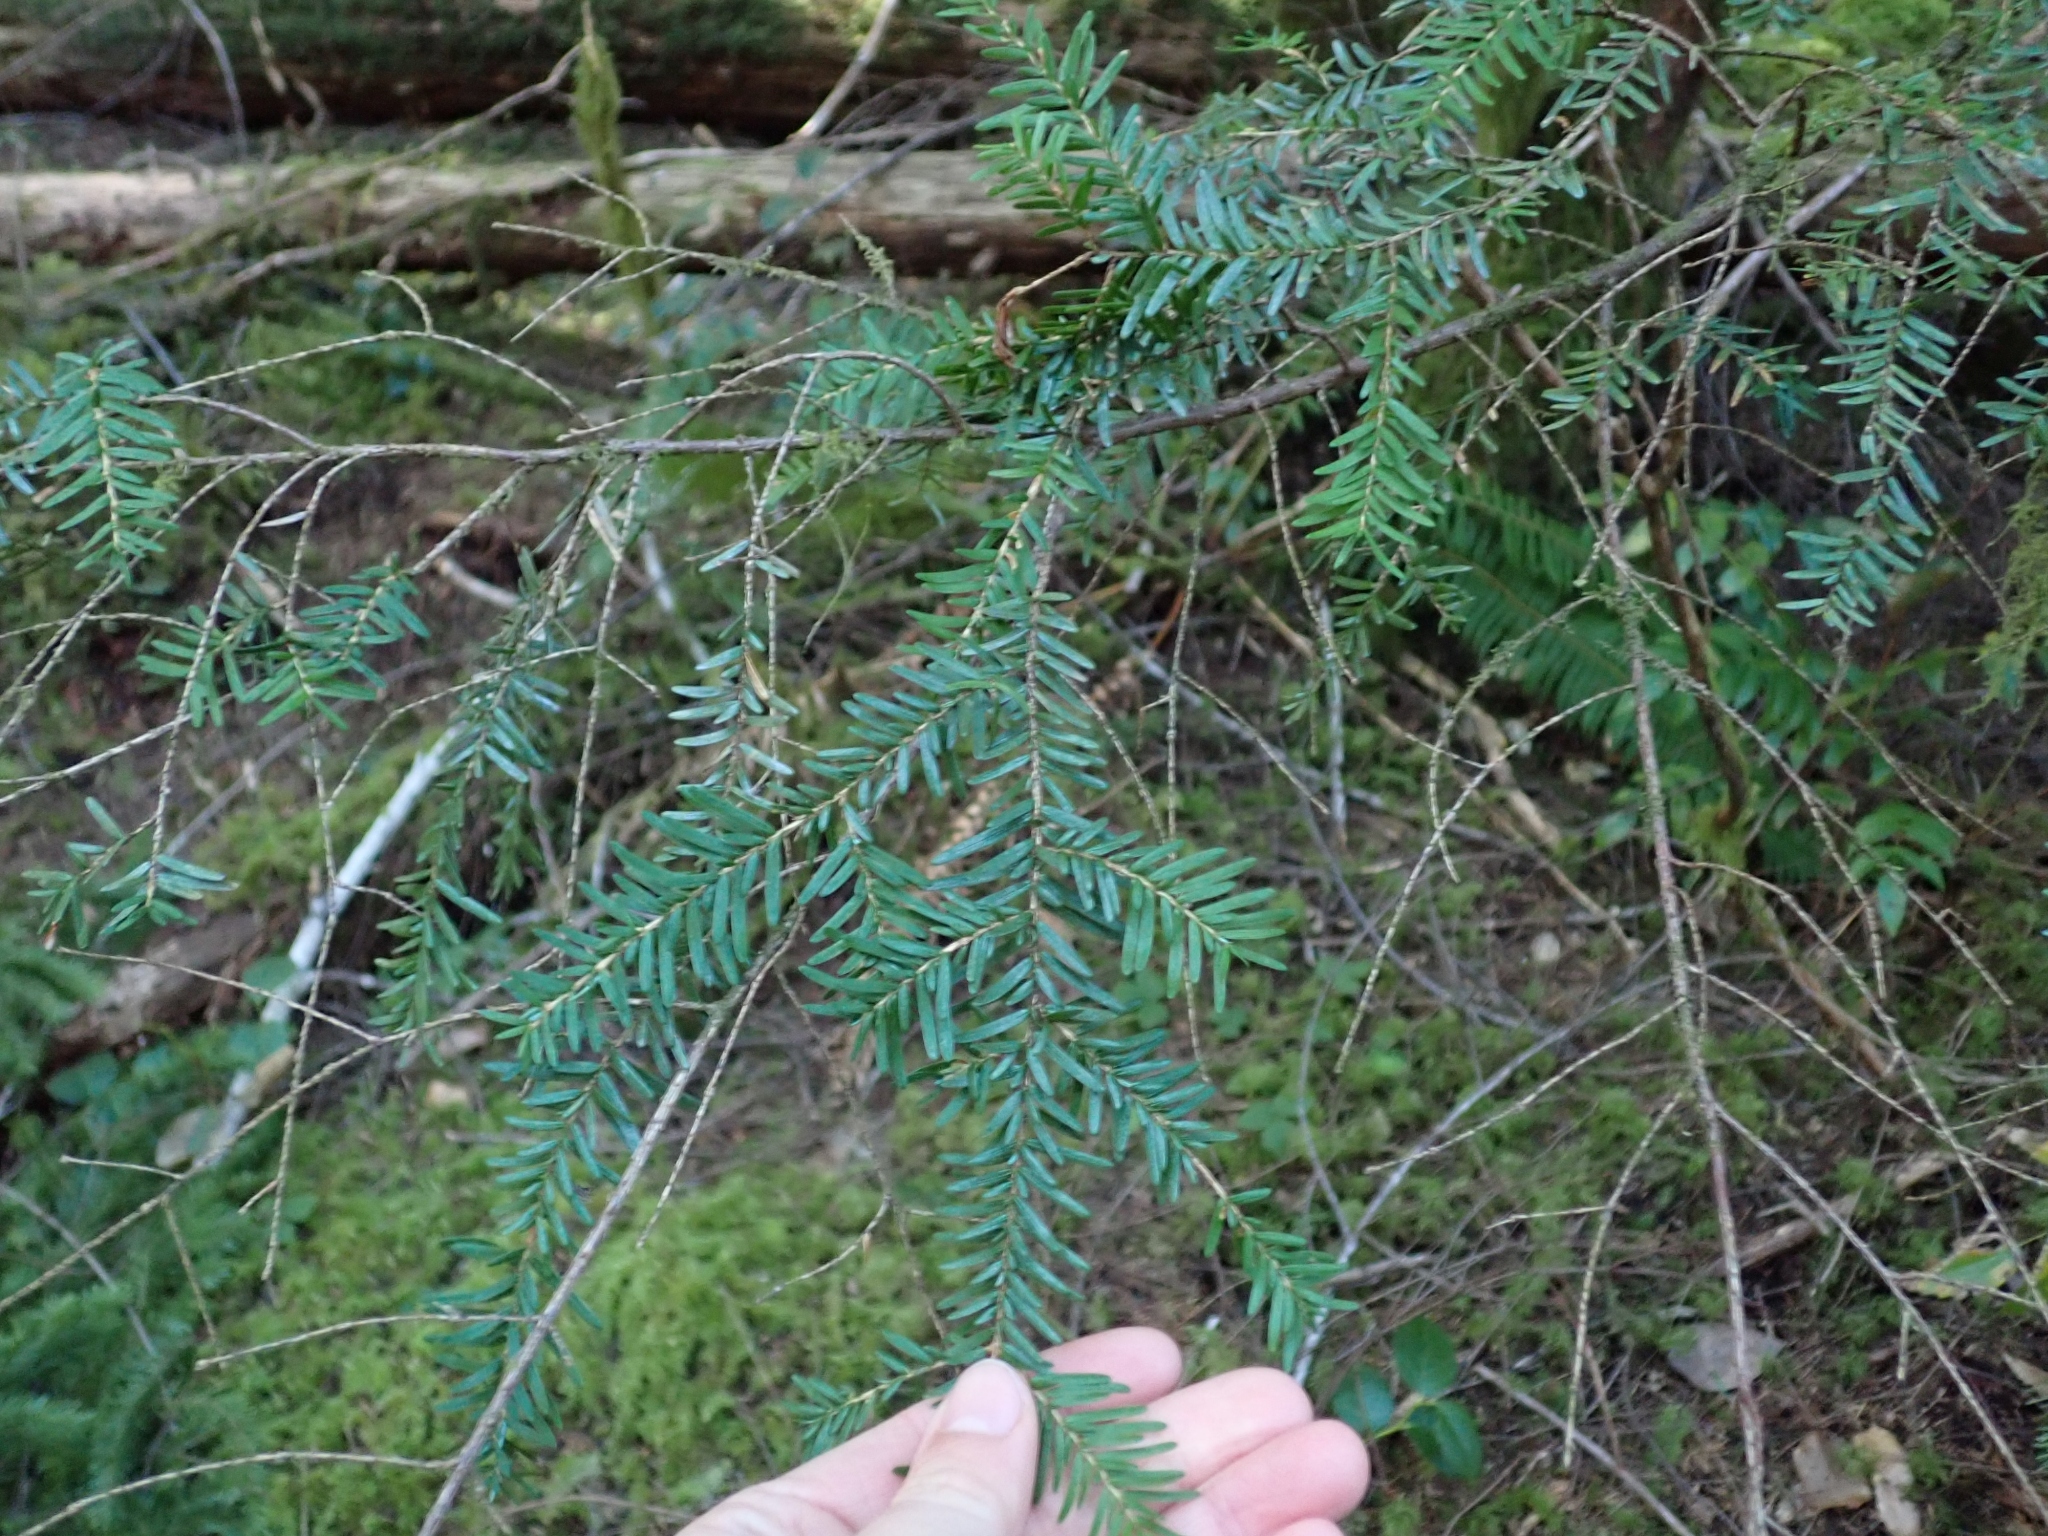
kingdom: Plantae
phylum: Tracheophyta
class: Pinopsida
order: Pinales
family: Pinaceae
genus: Tsuga
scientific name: Tsuga heterophylla
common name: Western hemlock
